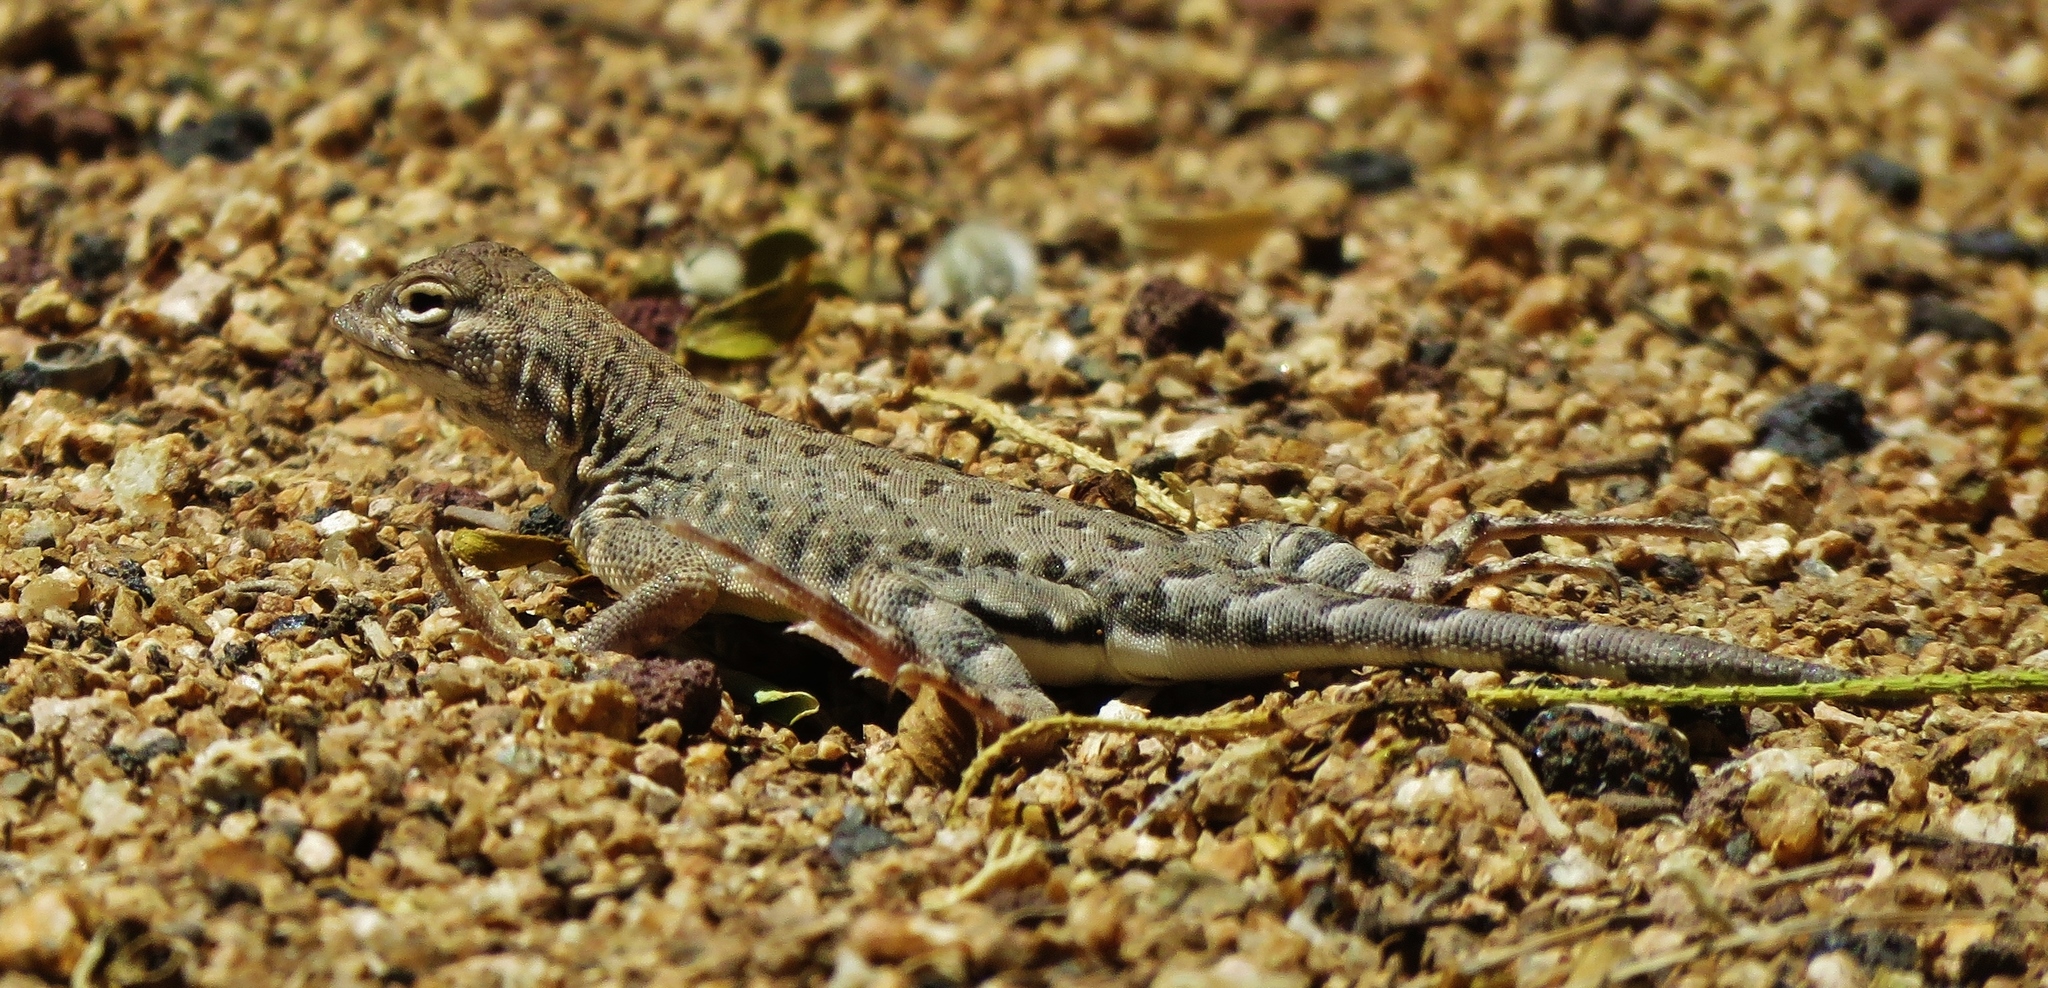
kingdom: Animalia
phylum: Chordata
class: Squamata
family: Phrynosomatidae
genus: Uta
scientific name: Uta stansburiana
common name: Side-blotched lizard
